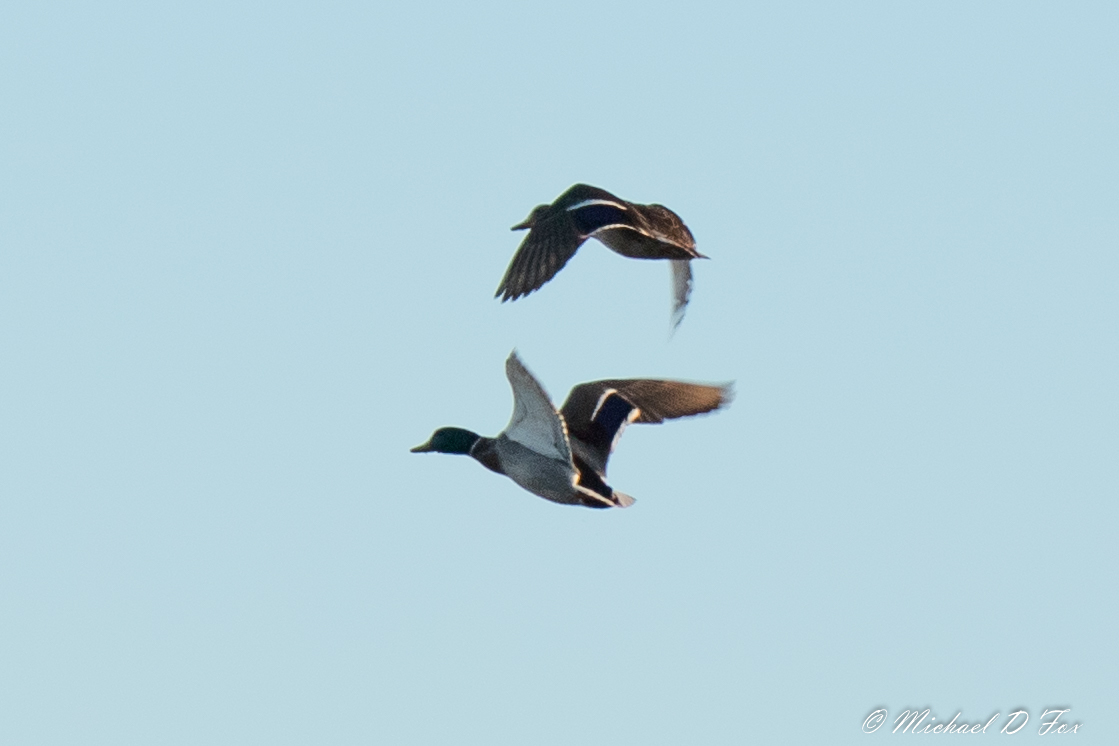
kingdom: Animalia
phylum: Chordata
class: Aves
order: Anseriformes
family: Anatidae
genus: Anas
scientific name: Anas platyrhynchos
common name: Mallard
